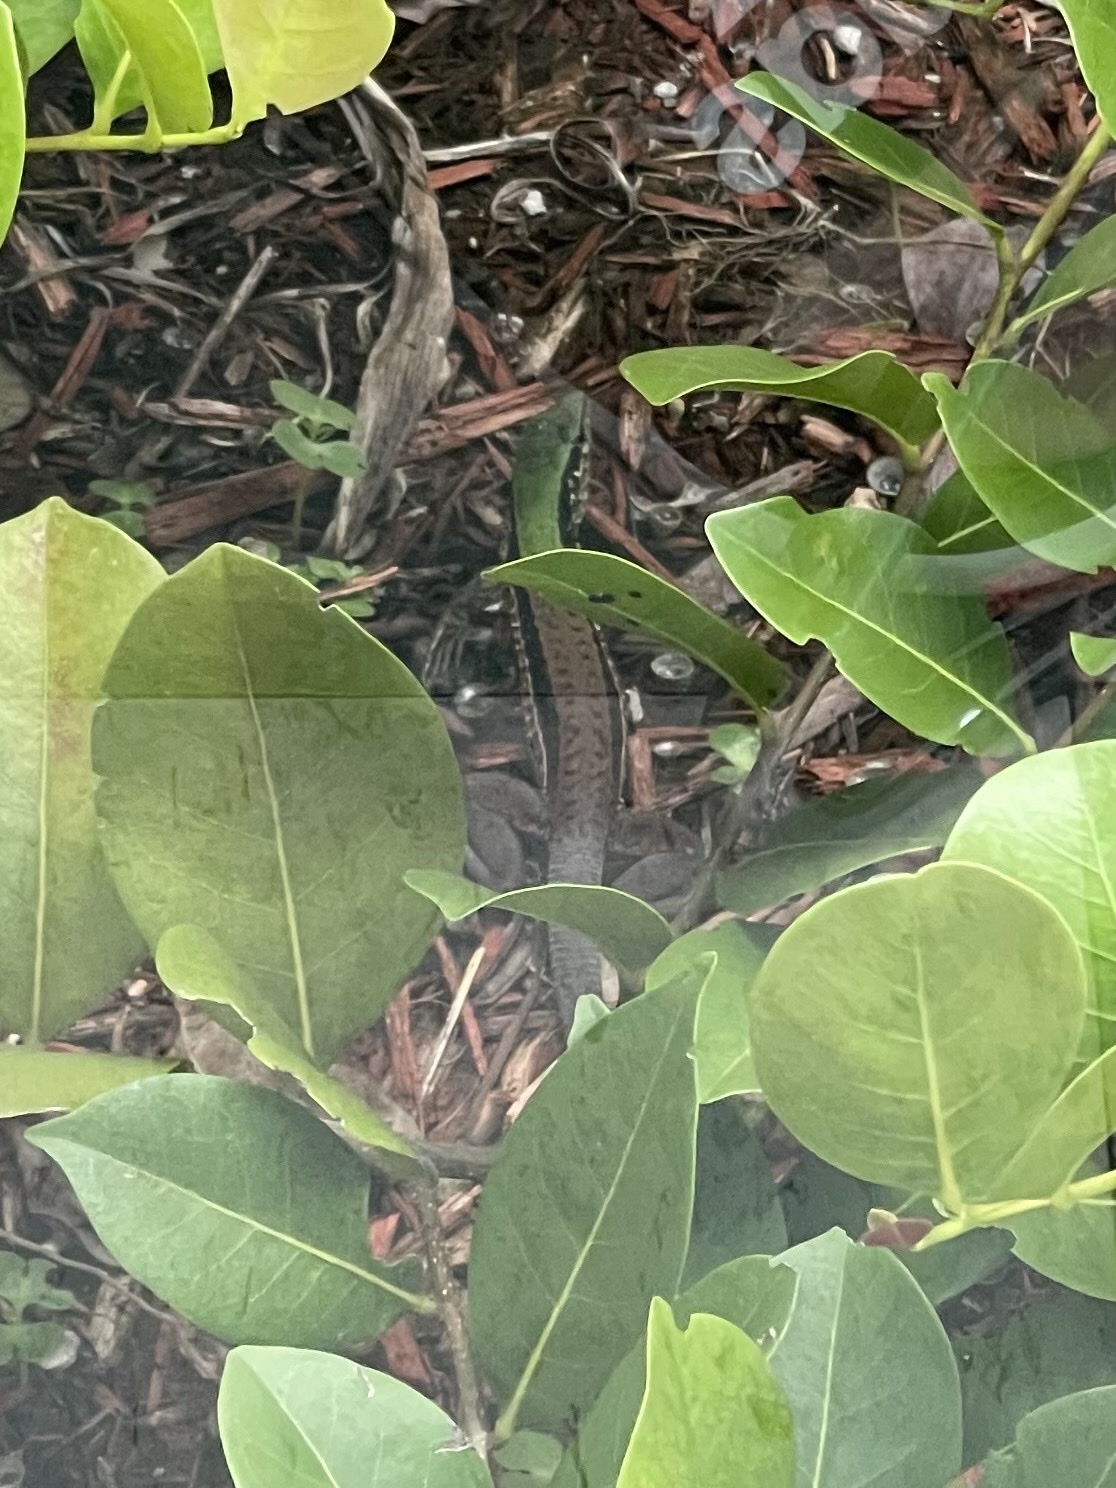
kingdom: Animalia
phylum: Chordata
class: Squamata
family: Teiidae
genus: Ameiva
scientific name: Ameiva ameiva
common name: Giant ameiva
